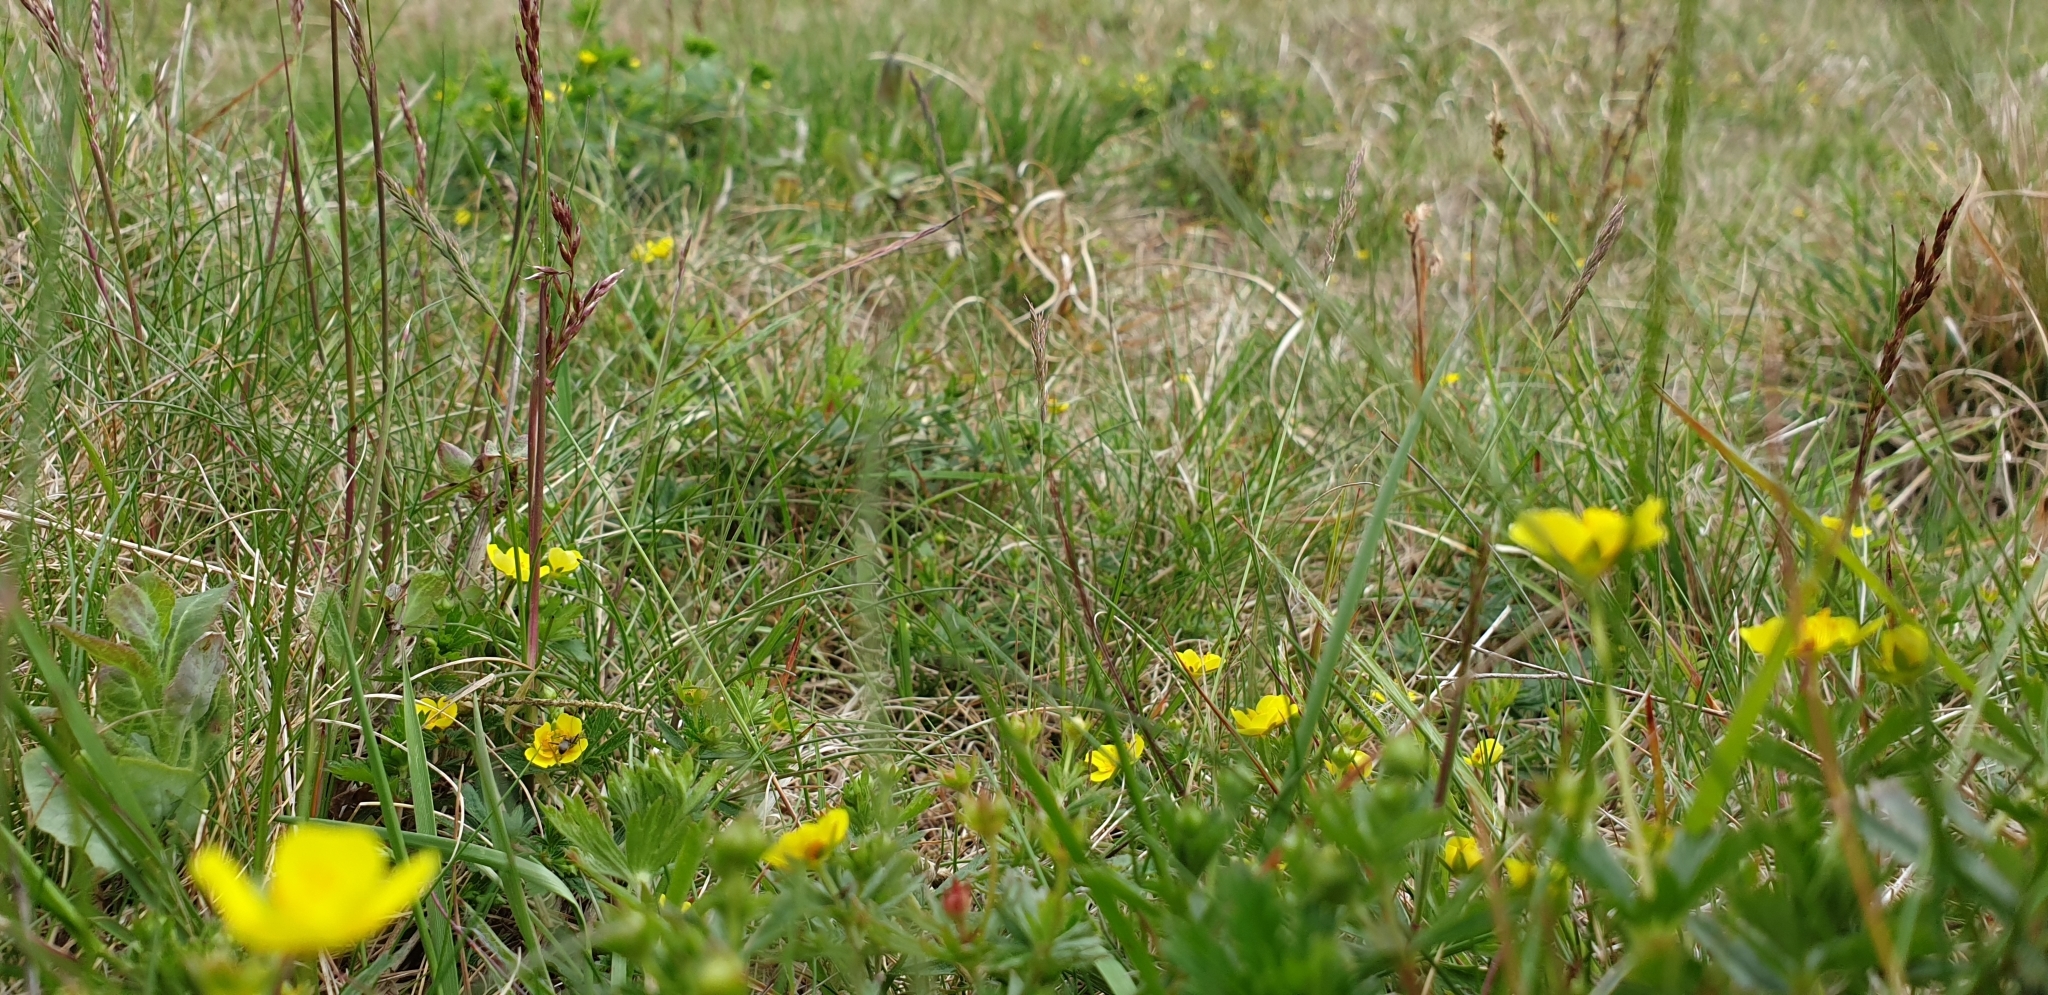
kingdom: Plantae
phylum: Tracheophyta
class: Magnoliopsida
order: Rosales
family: Rosaceae
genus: Potentilla
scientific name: Potentilla erecta
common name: Tormentil
